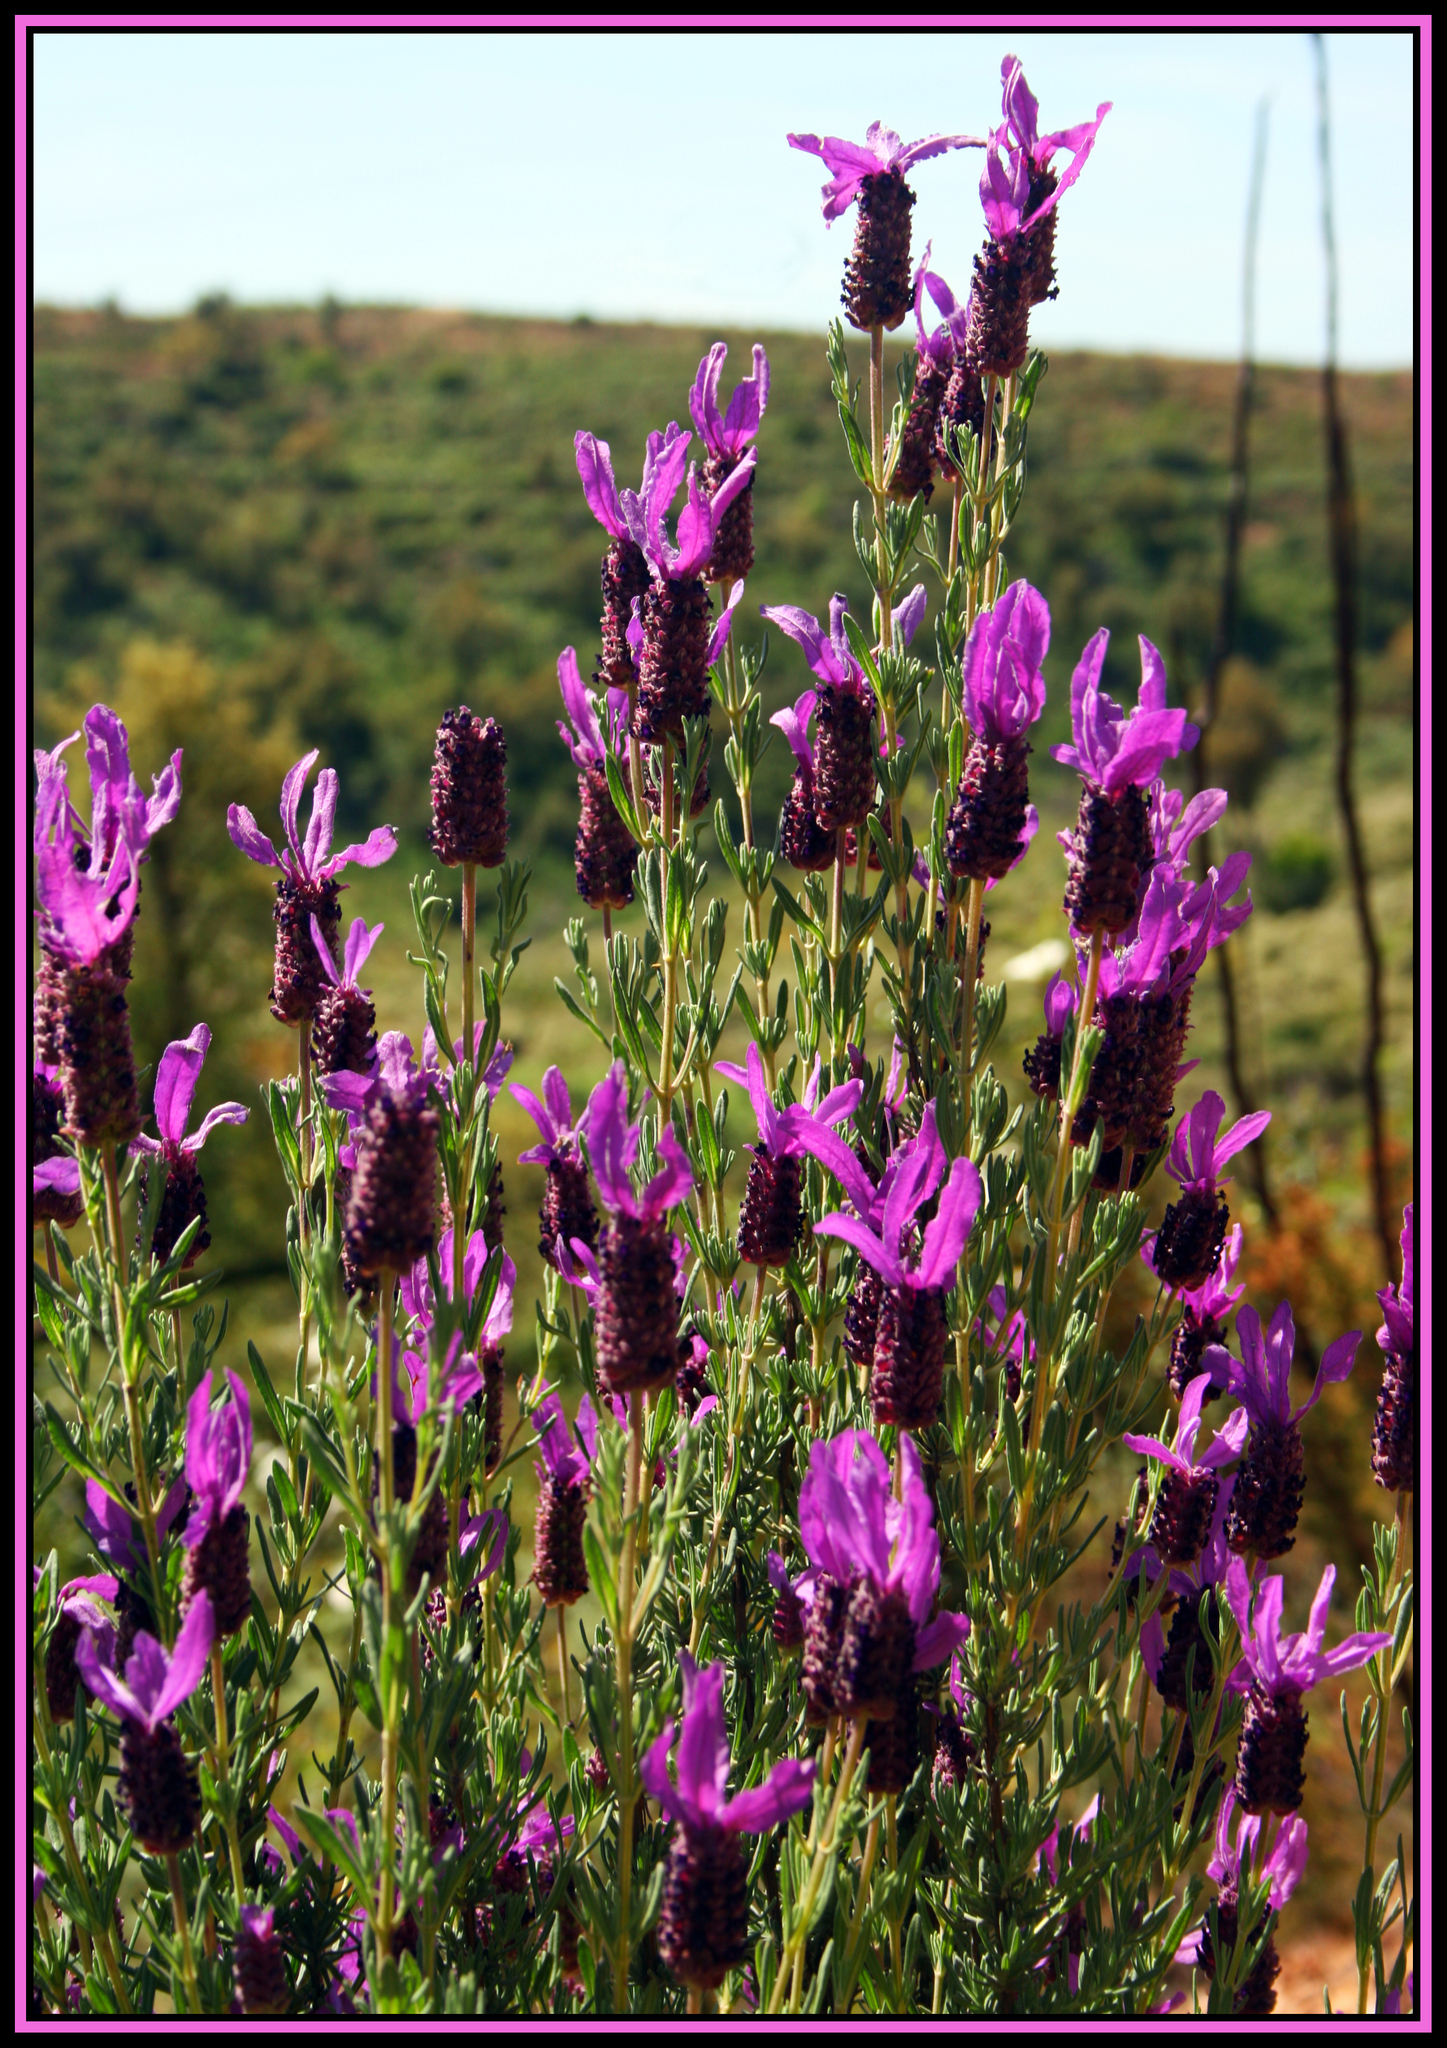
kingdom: Plantae
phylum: Tracheophyta
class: Magnoliopsida
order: Lamiales
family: Lamiaceae
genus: Lavandula
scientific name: Lavandula stoechas
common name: French lavender
